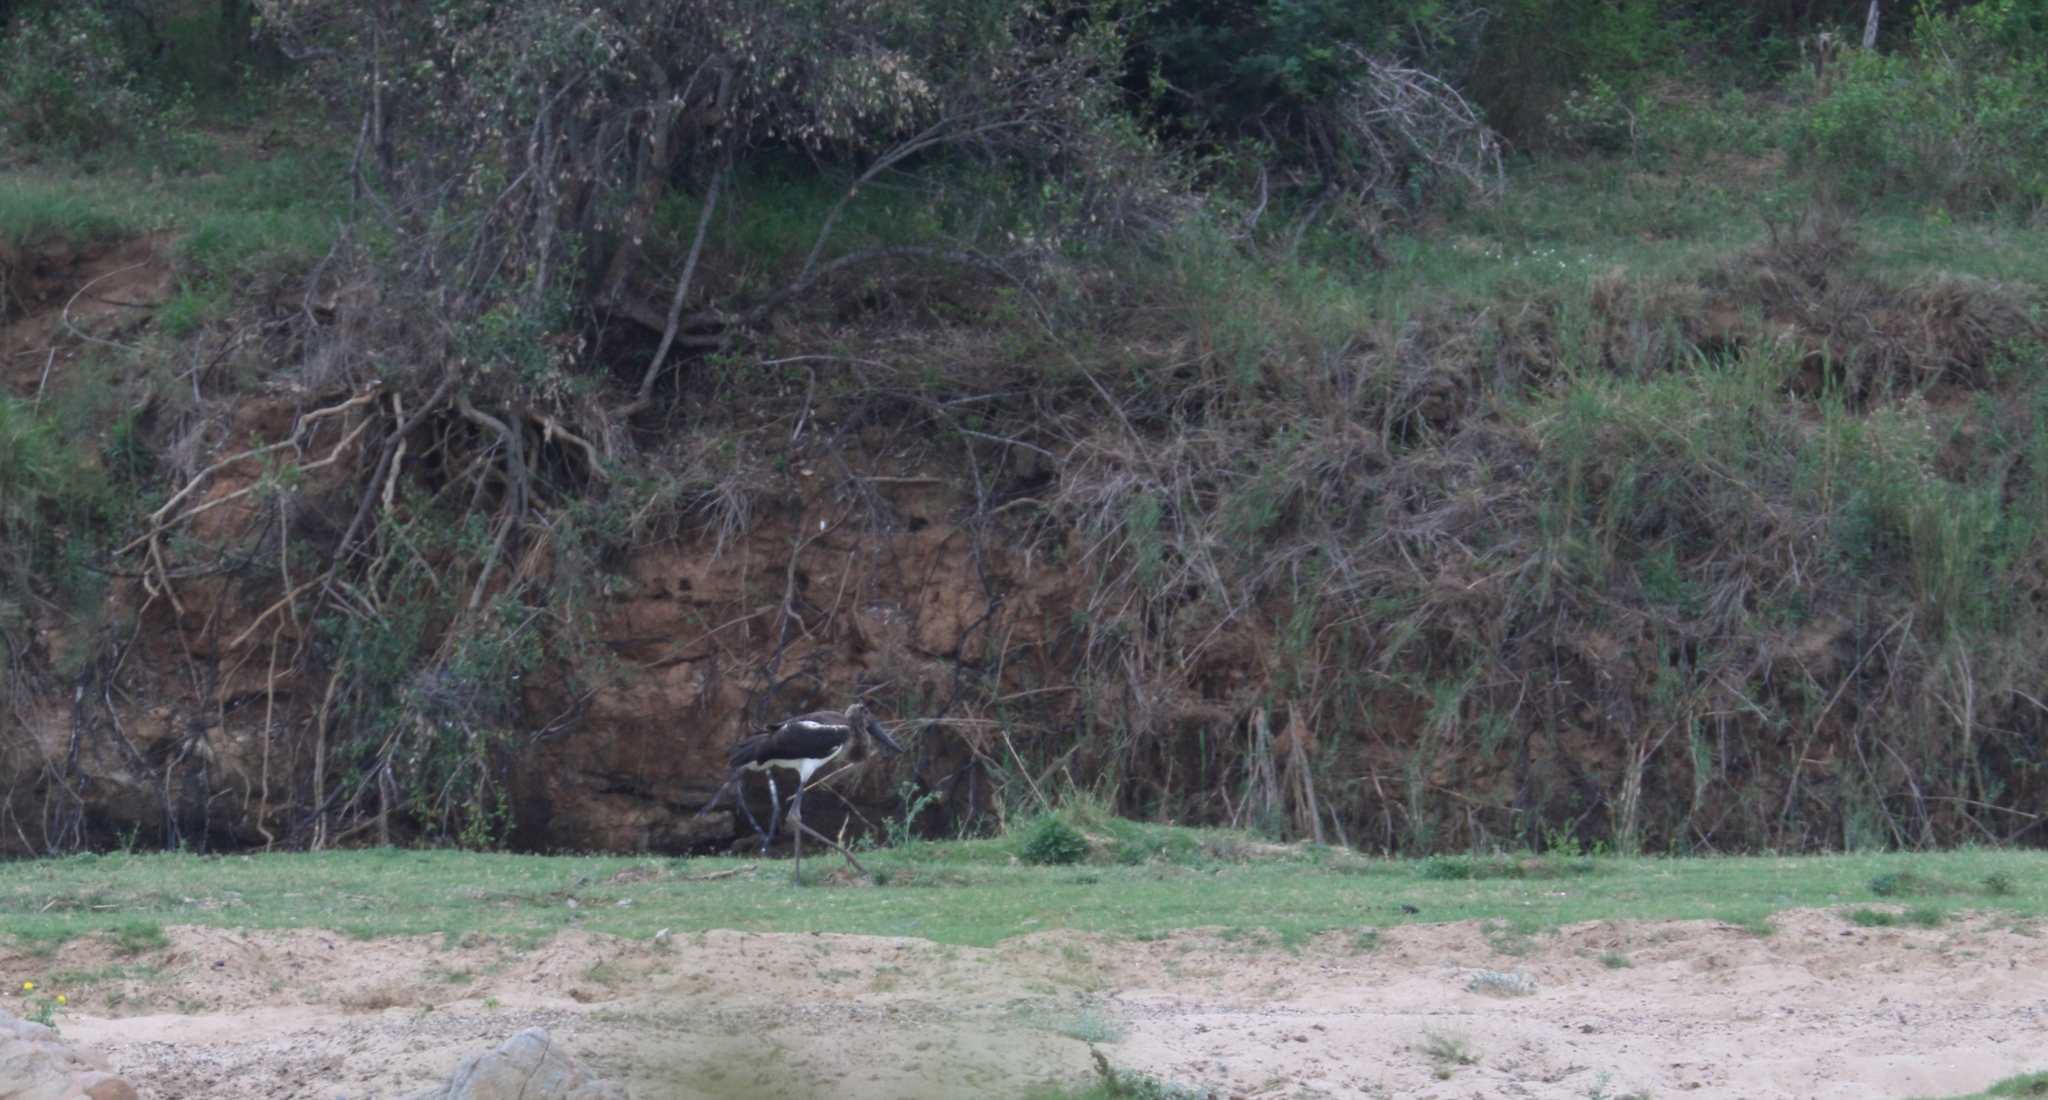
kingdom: Animalia
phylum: Chordata
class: Aves
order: Ciconiiformes
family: Ciconiidae
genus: Ephippiorhynchus
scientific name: Ephippiorhynchus senegalensis
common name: Saddle-billed stork
